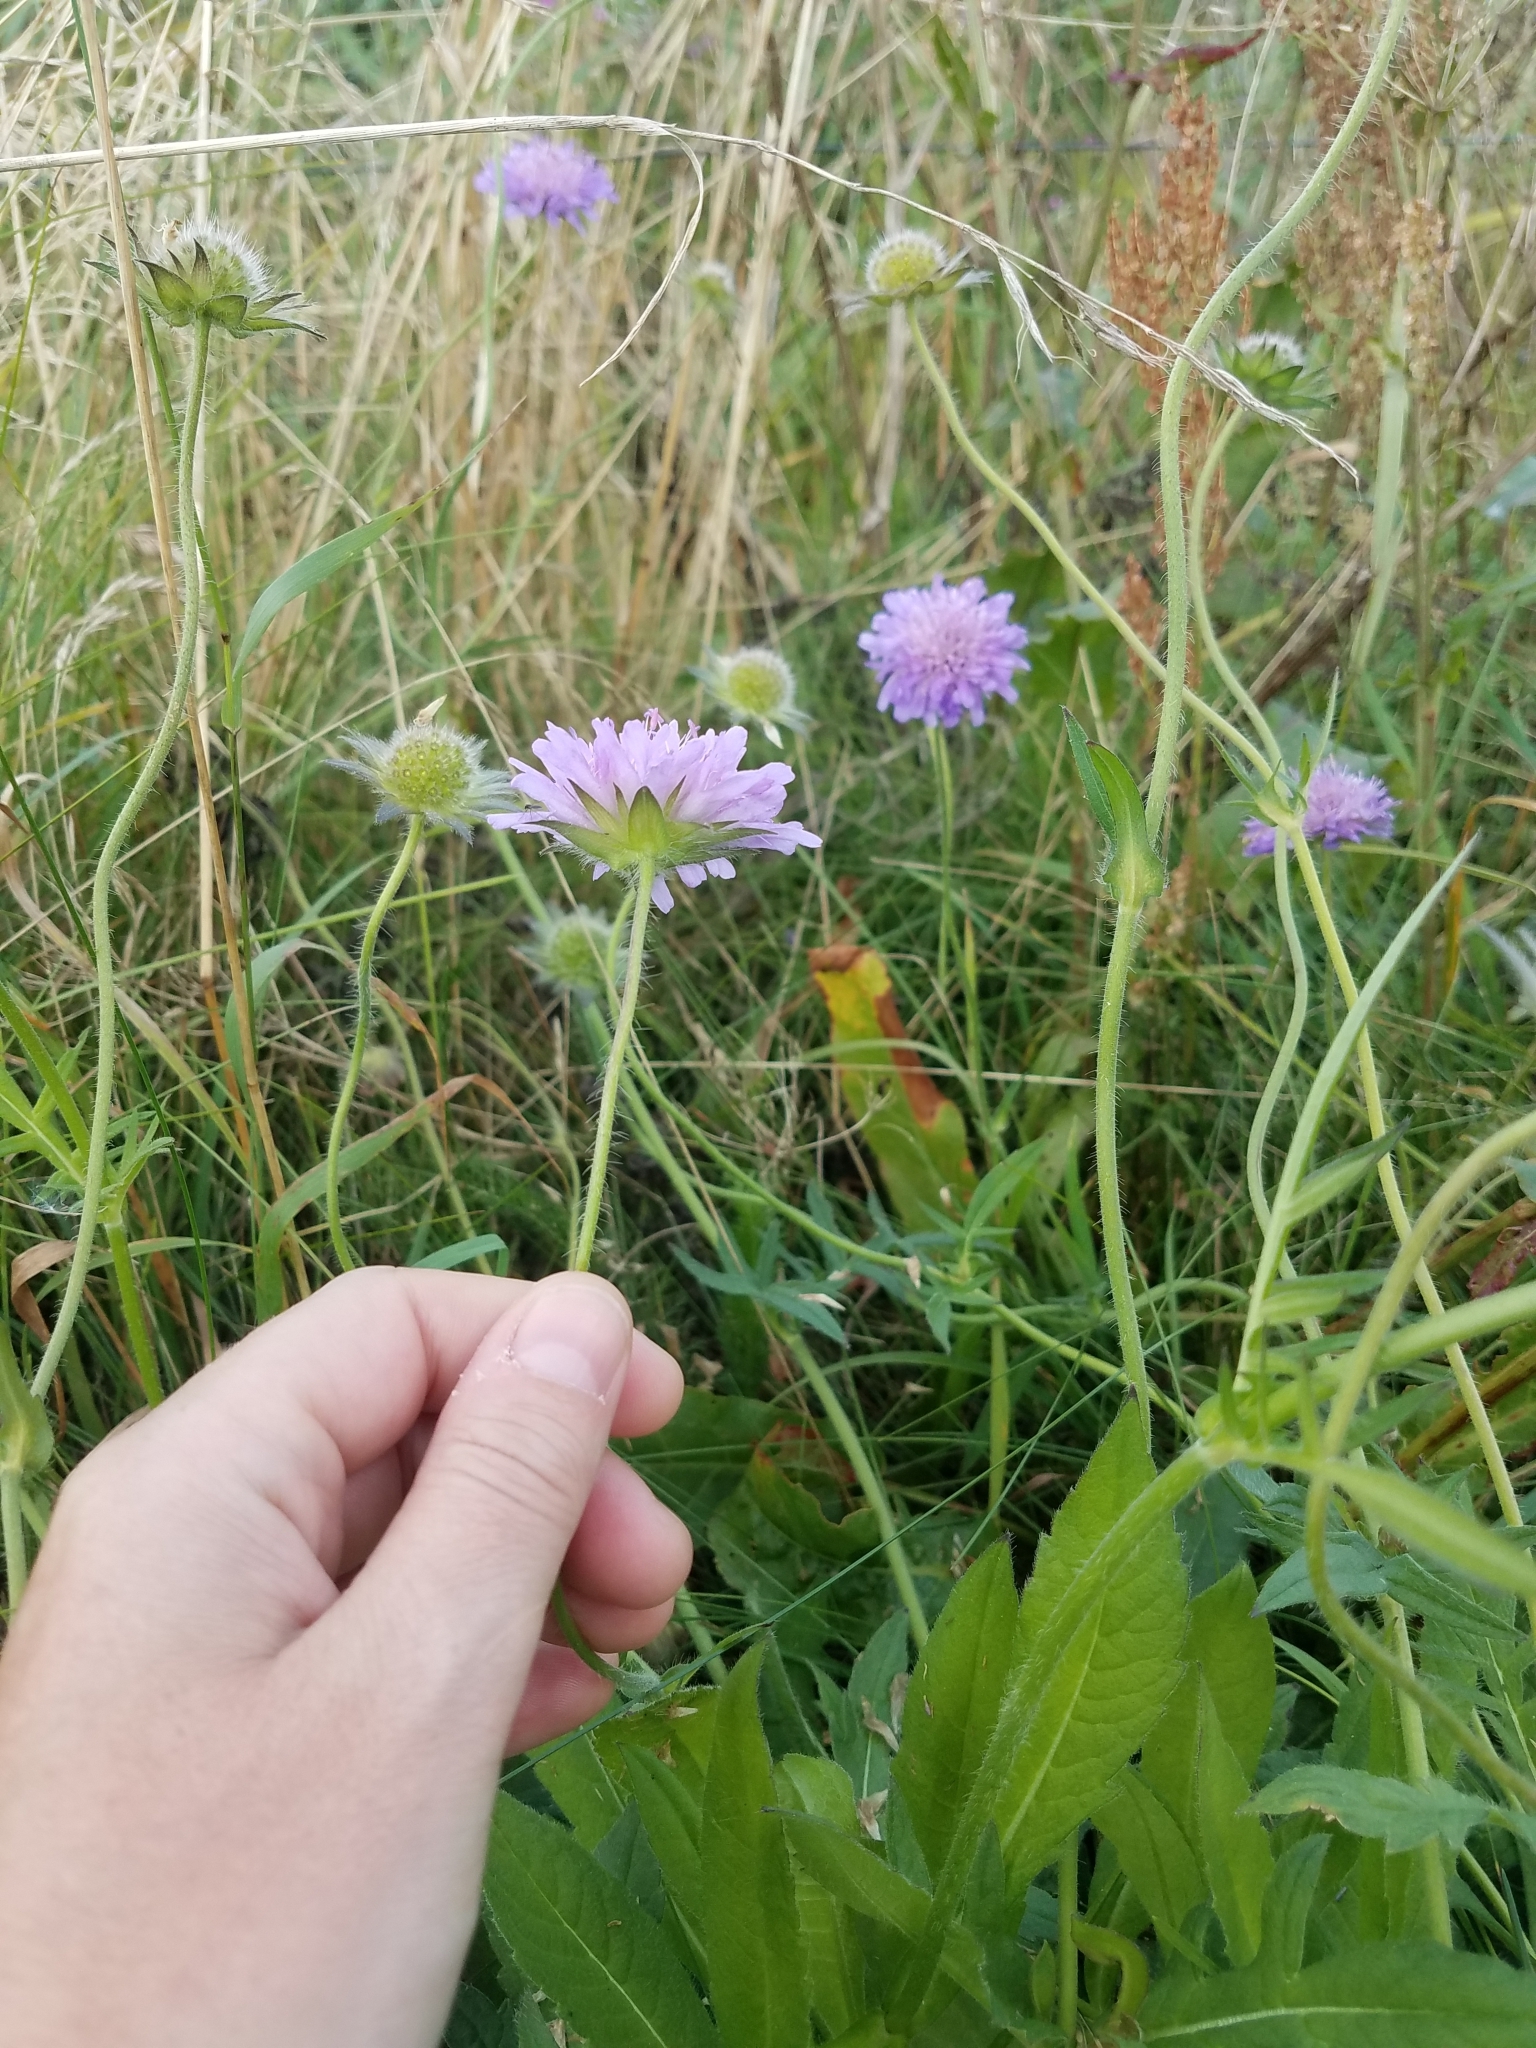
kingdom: Plantae
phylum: Tracheophyta
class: Magnoliopsida
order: Dipsacales
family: Caprifoliaceae
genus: Knautia
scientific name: Knautia arvensis
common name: Field scabiosa
